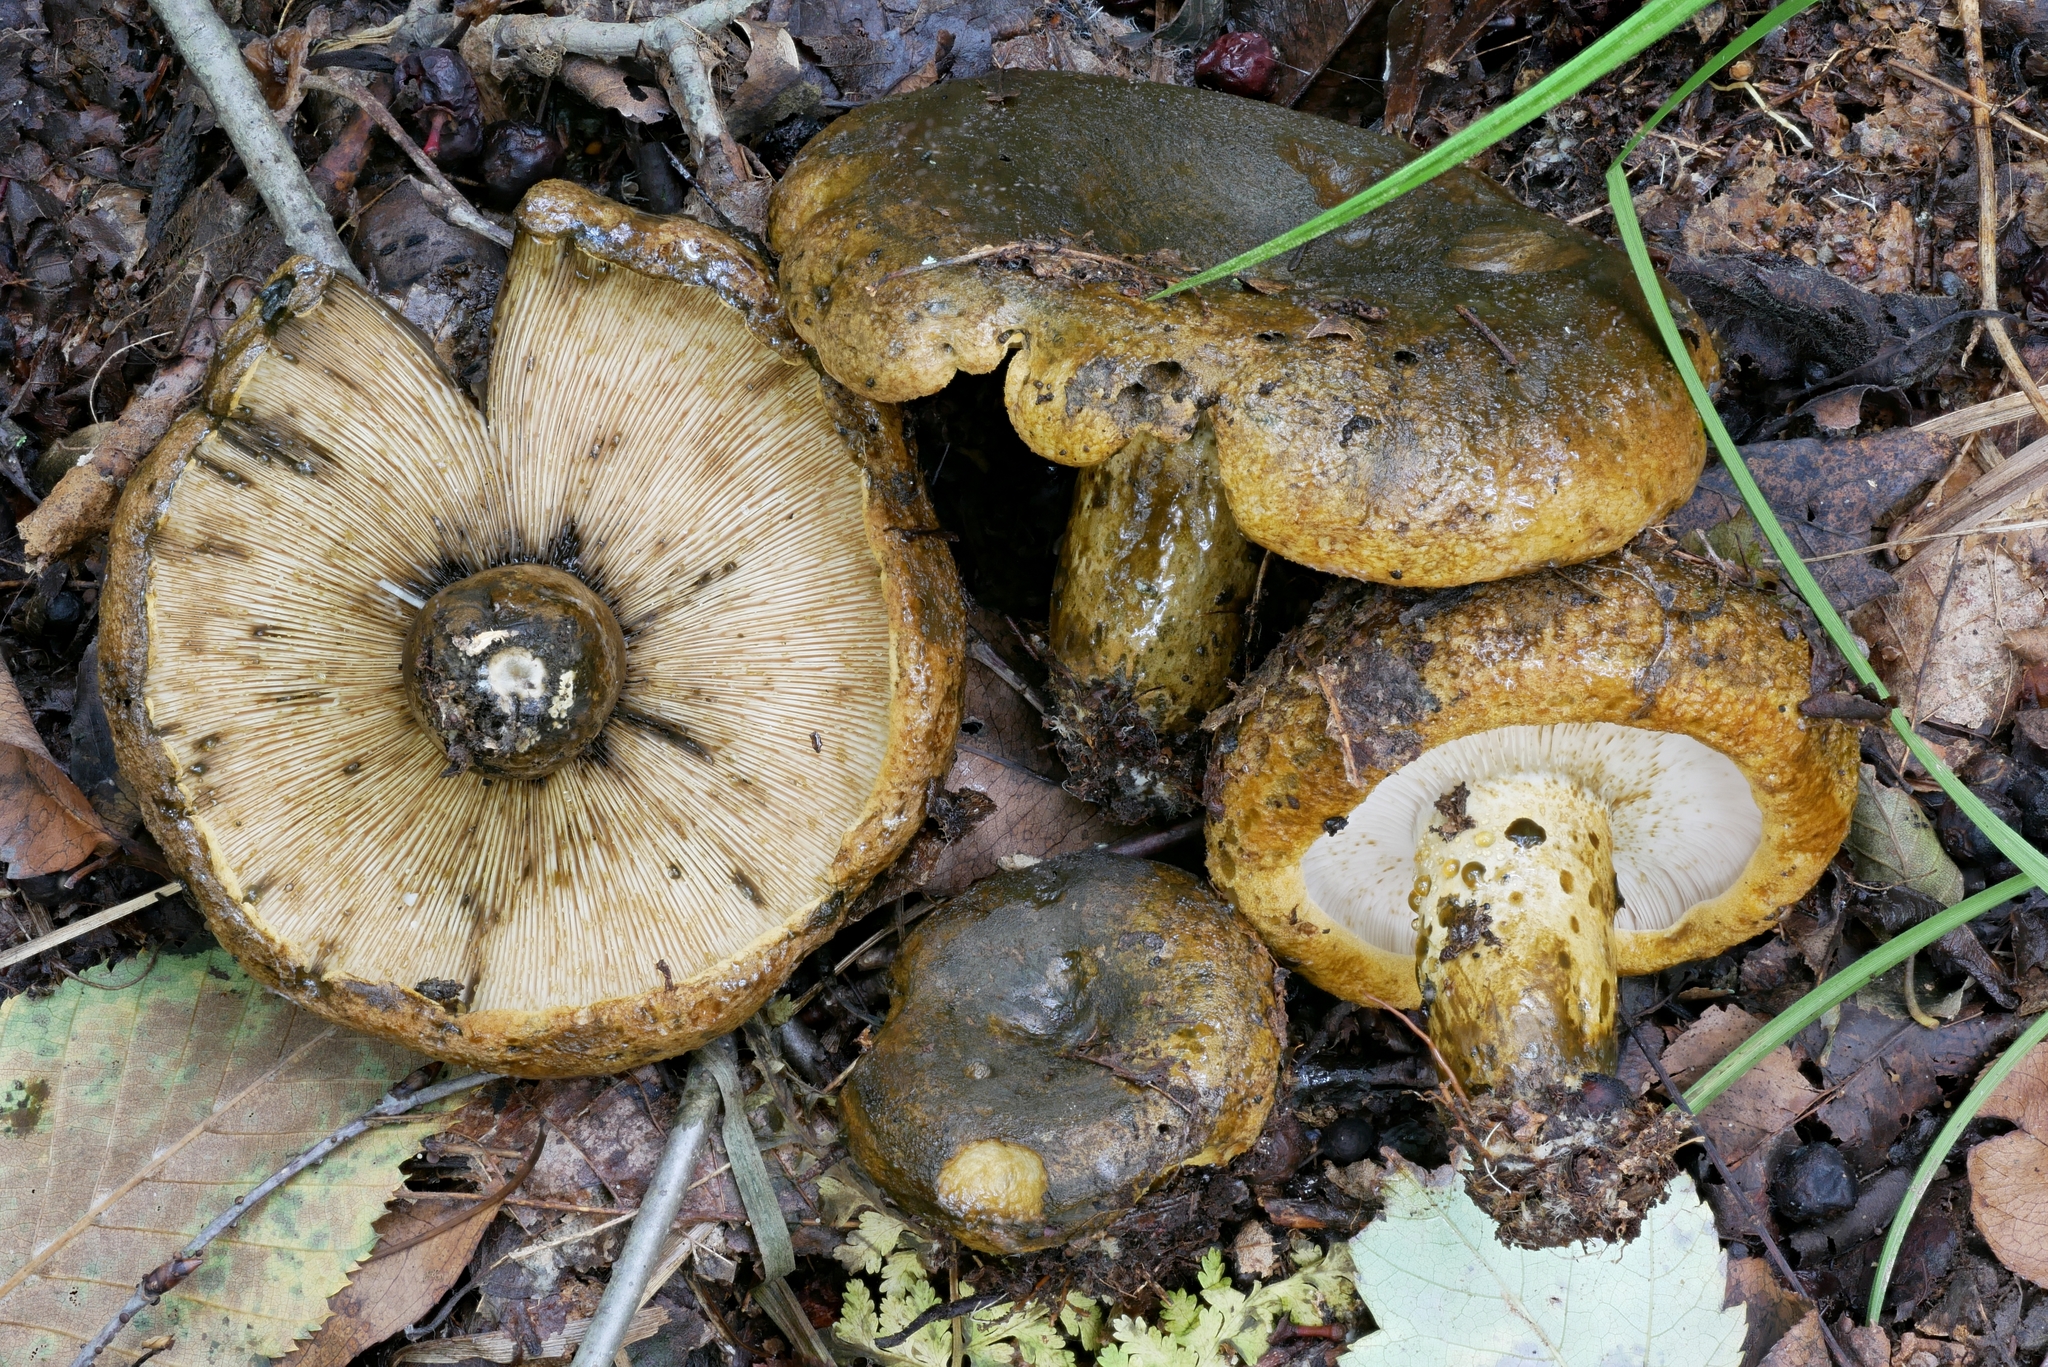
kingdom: Fungi
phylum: Basidiomycota
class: Agaricomycetes
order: Russulales
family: Russulaceae
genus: Lactarius
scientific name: Lactarius sordidus
